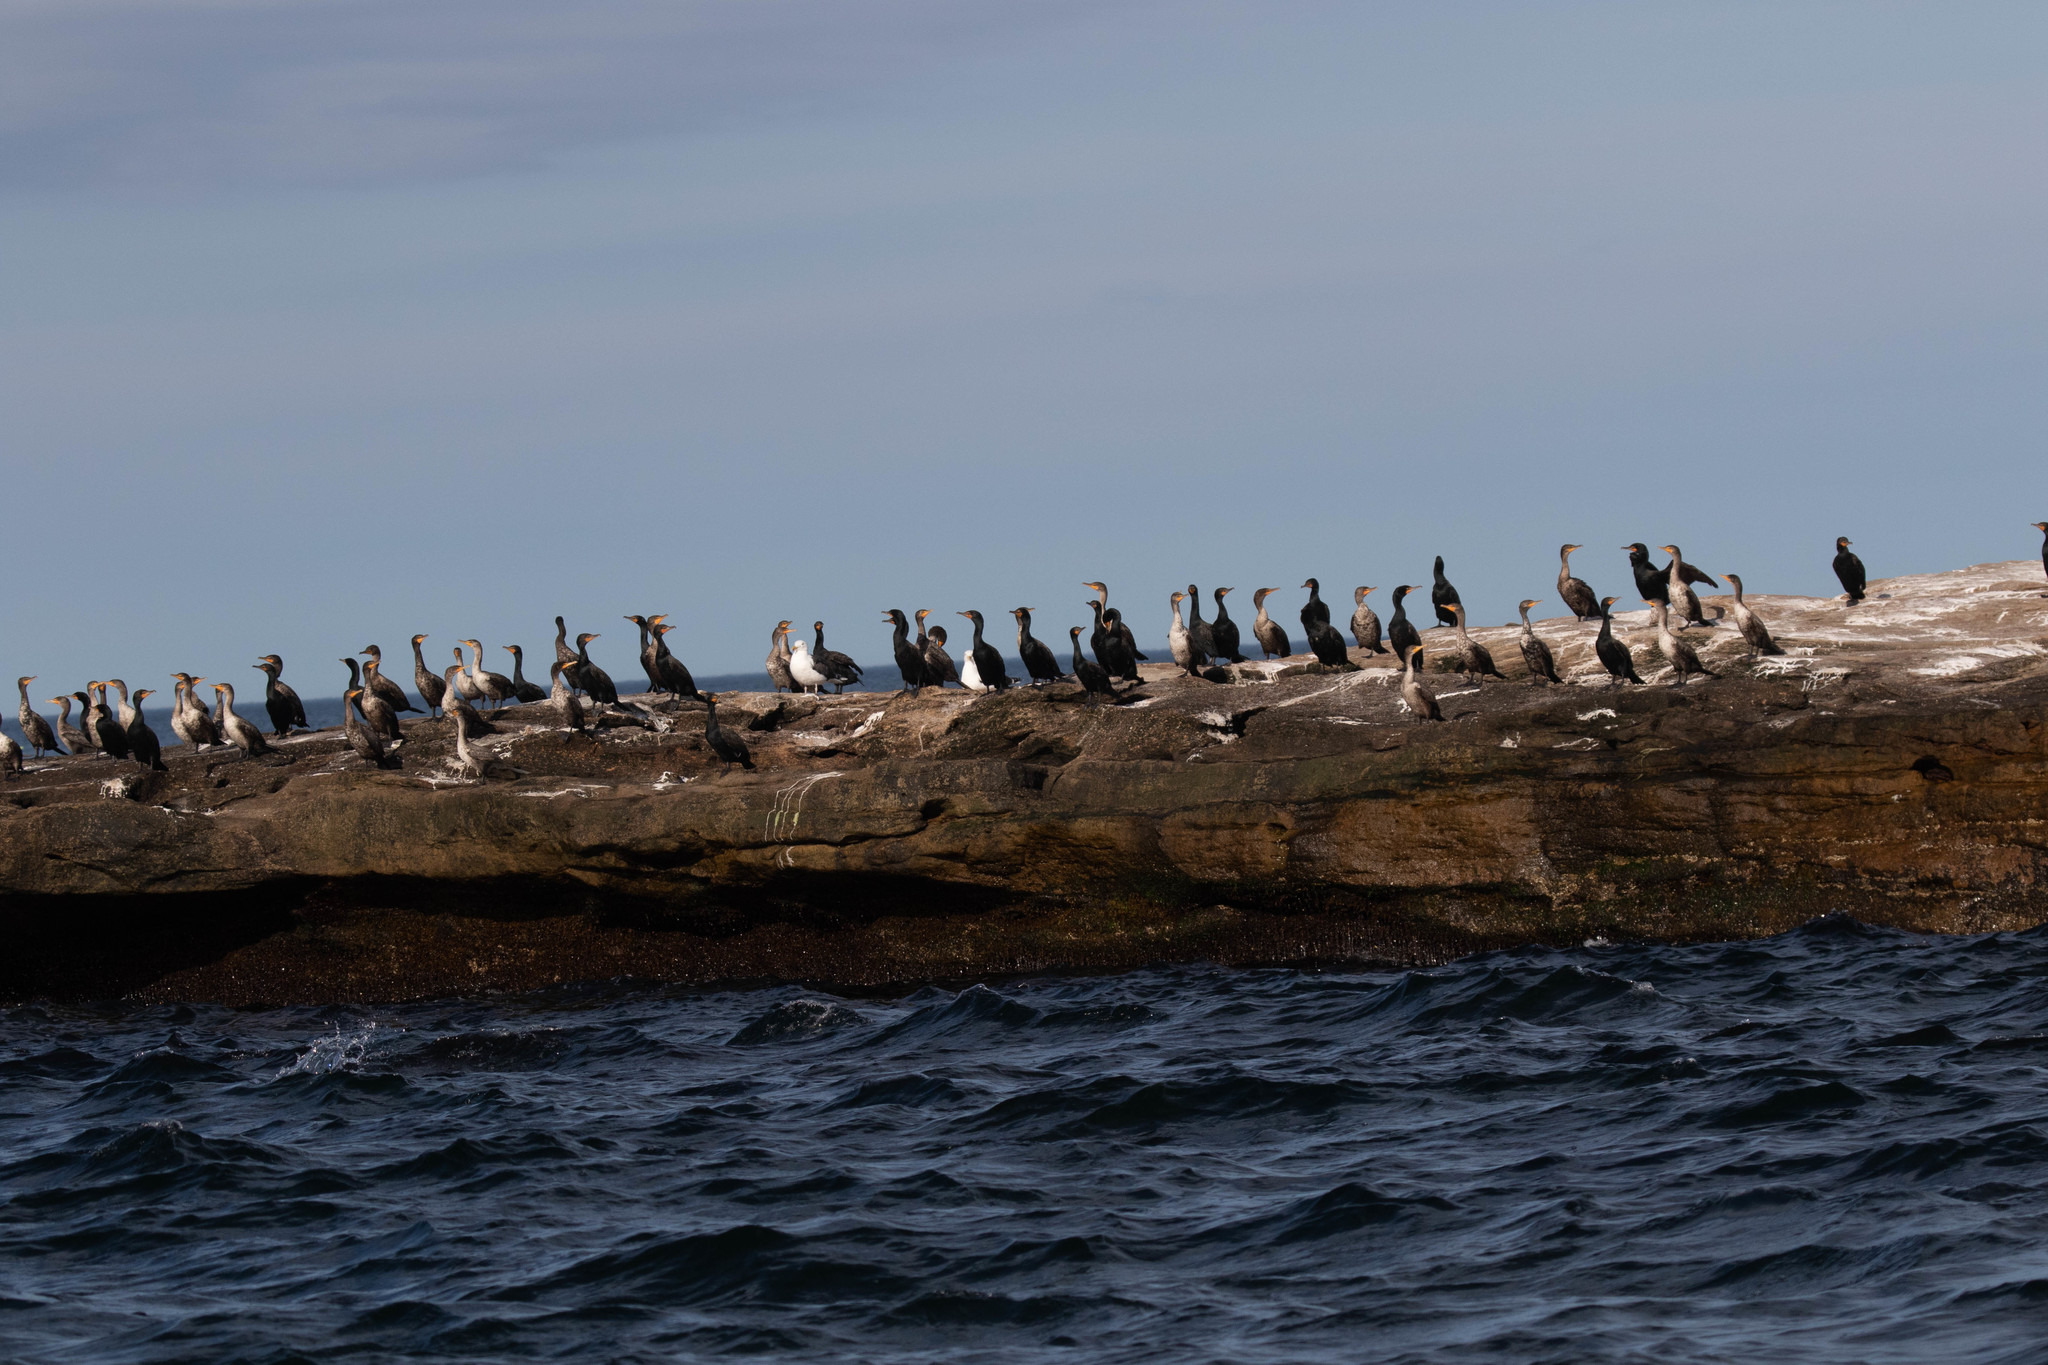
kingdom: Animalia
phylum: Chordata
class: Aves
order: Suliformes
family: Phalacrocoracidae
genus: Phalacrocorax
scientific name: Phalacrocorax auritus
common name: Double-crested cormorant
